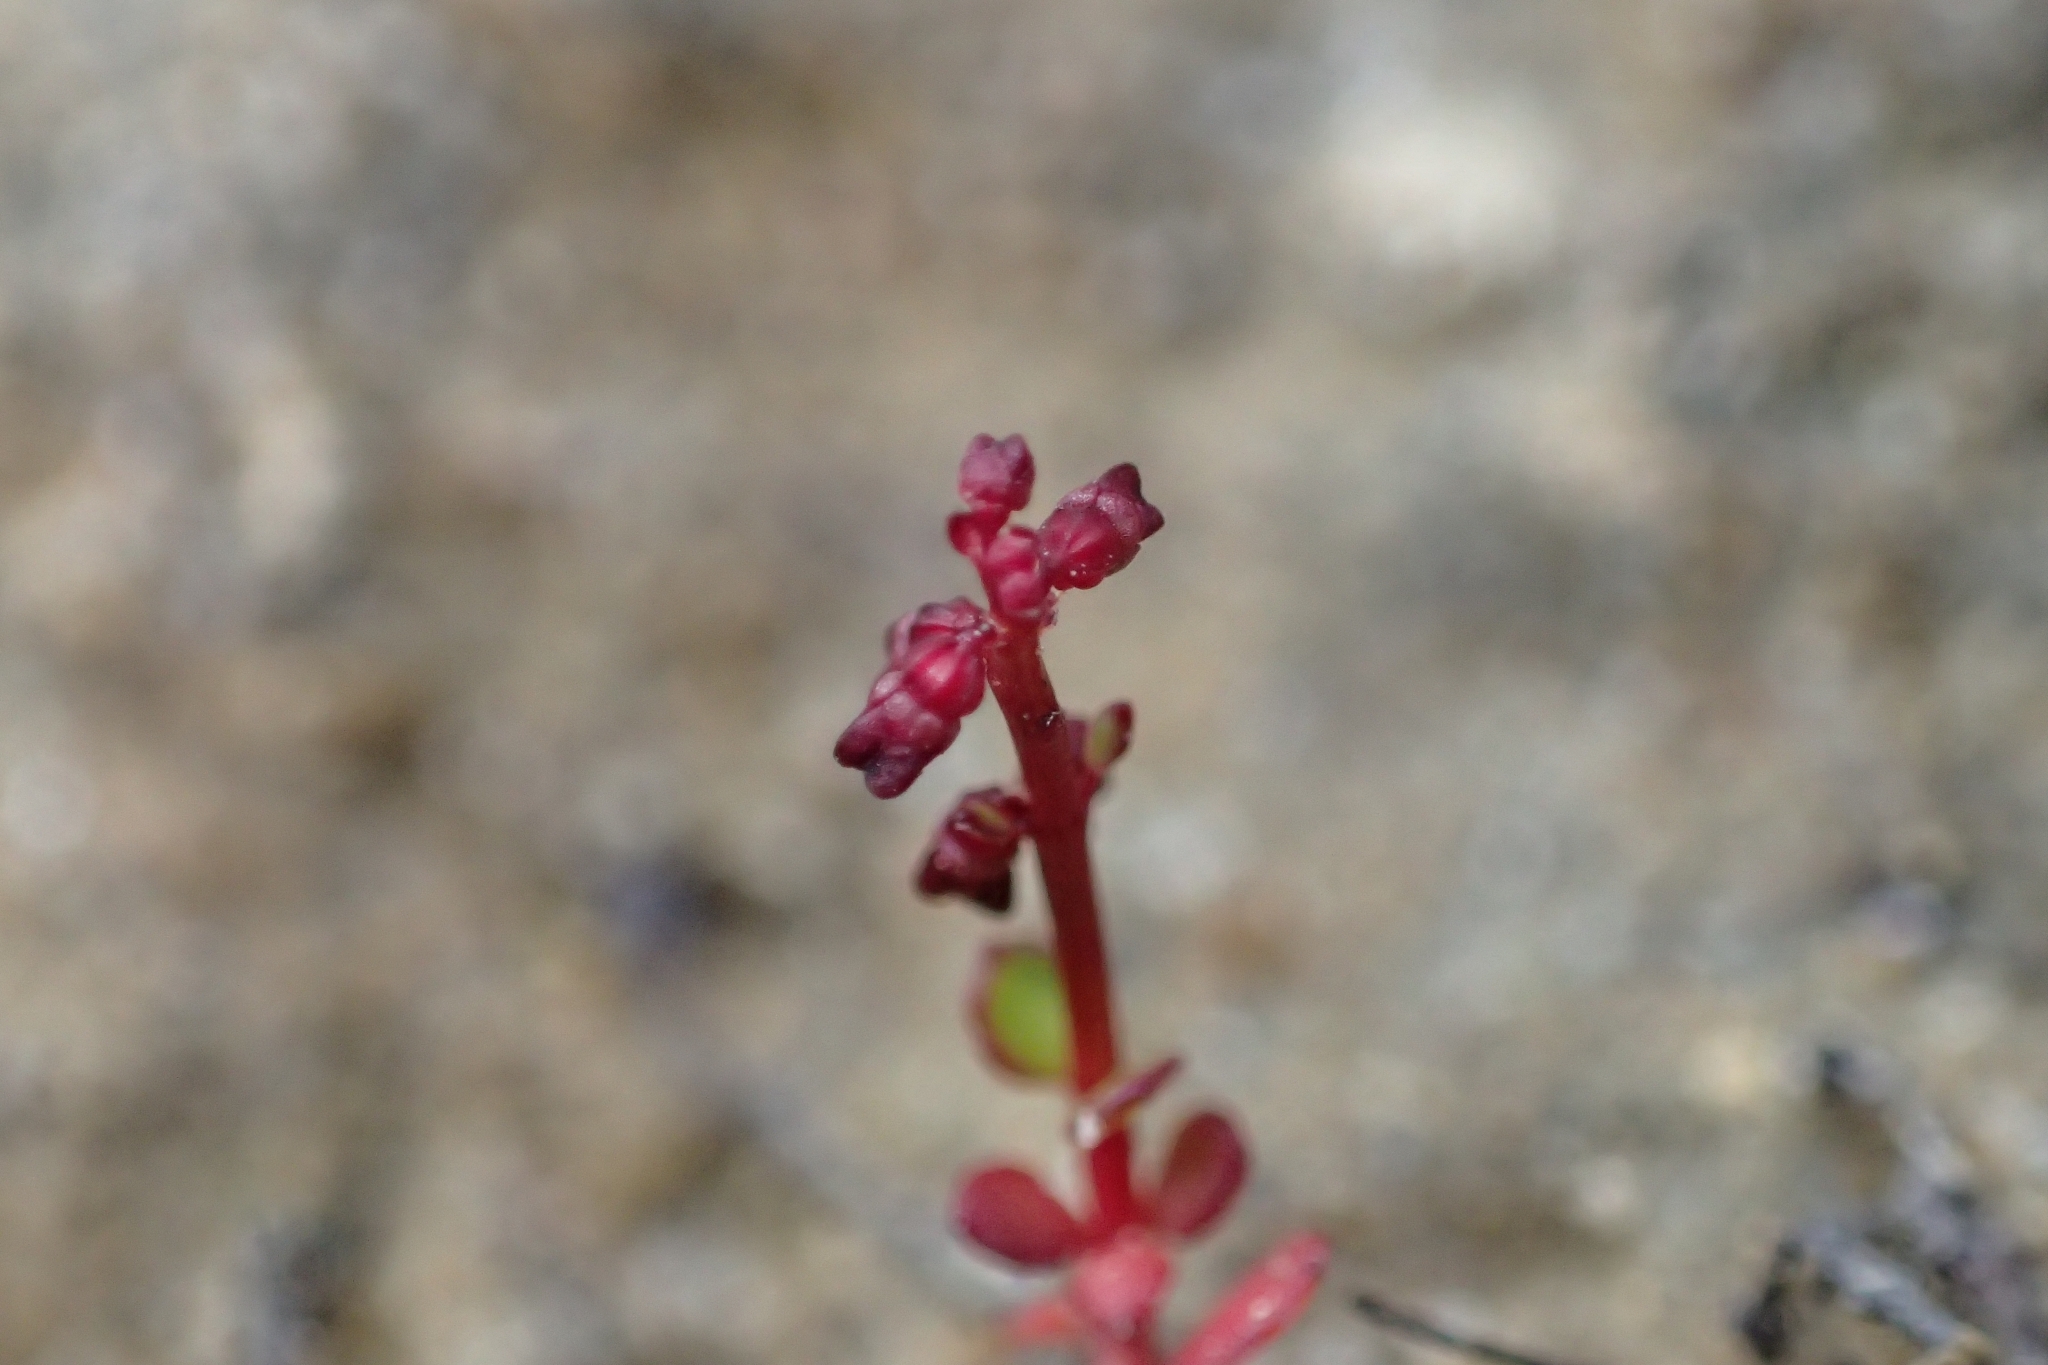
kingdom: Plantae
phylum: Tracheophyta
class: Magnoliopsida
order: Saxifragales
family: Haloragaceae
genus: Gonocarpus
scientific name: Gonocarpus micranthus
